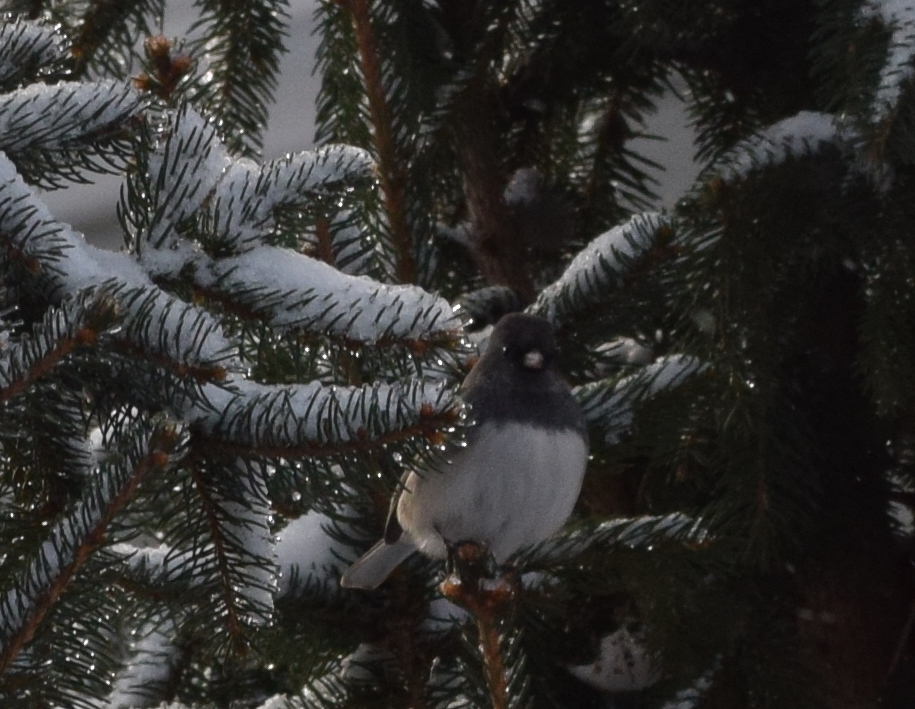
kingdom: Animalia
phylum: Chordata
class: Aves
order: Passeriformes
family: Passerellidae
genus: Junco
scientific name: Junco hyemalis
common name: Dark-eyed junco
